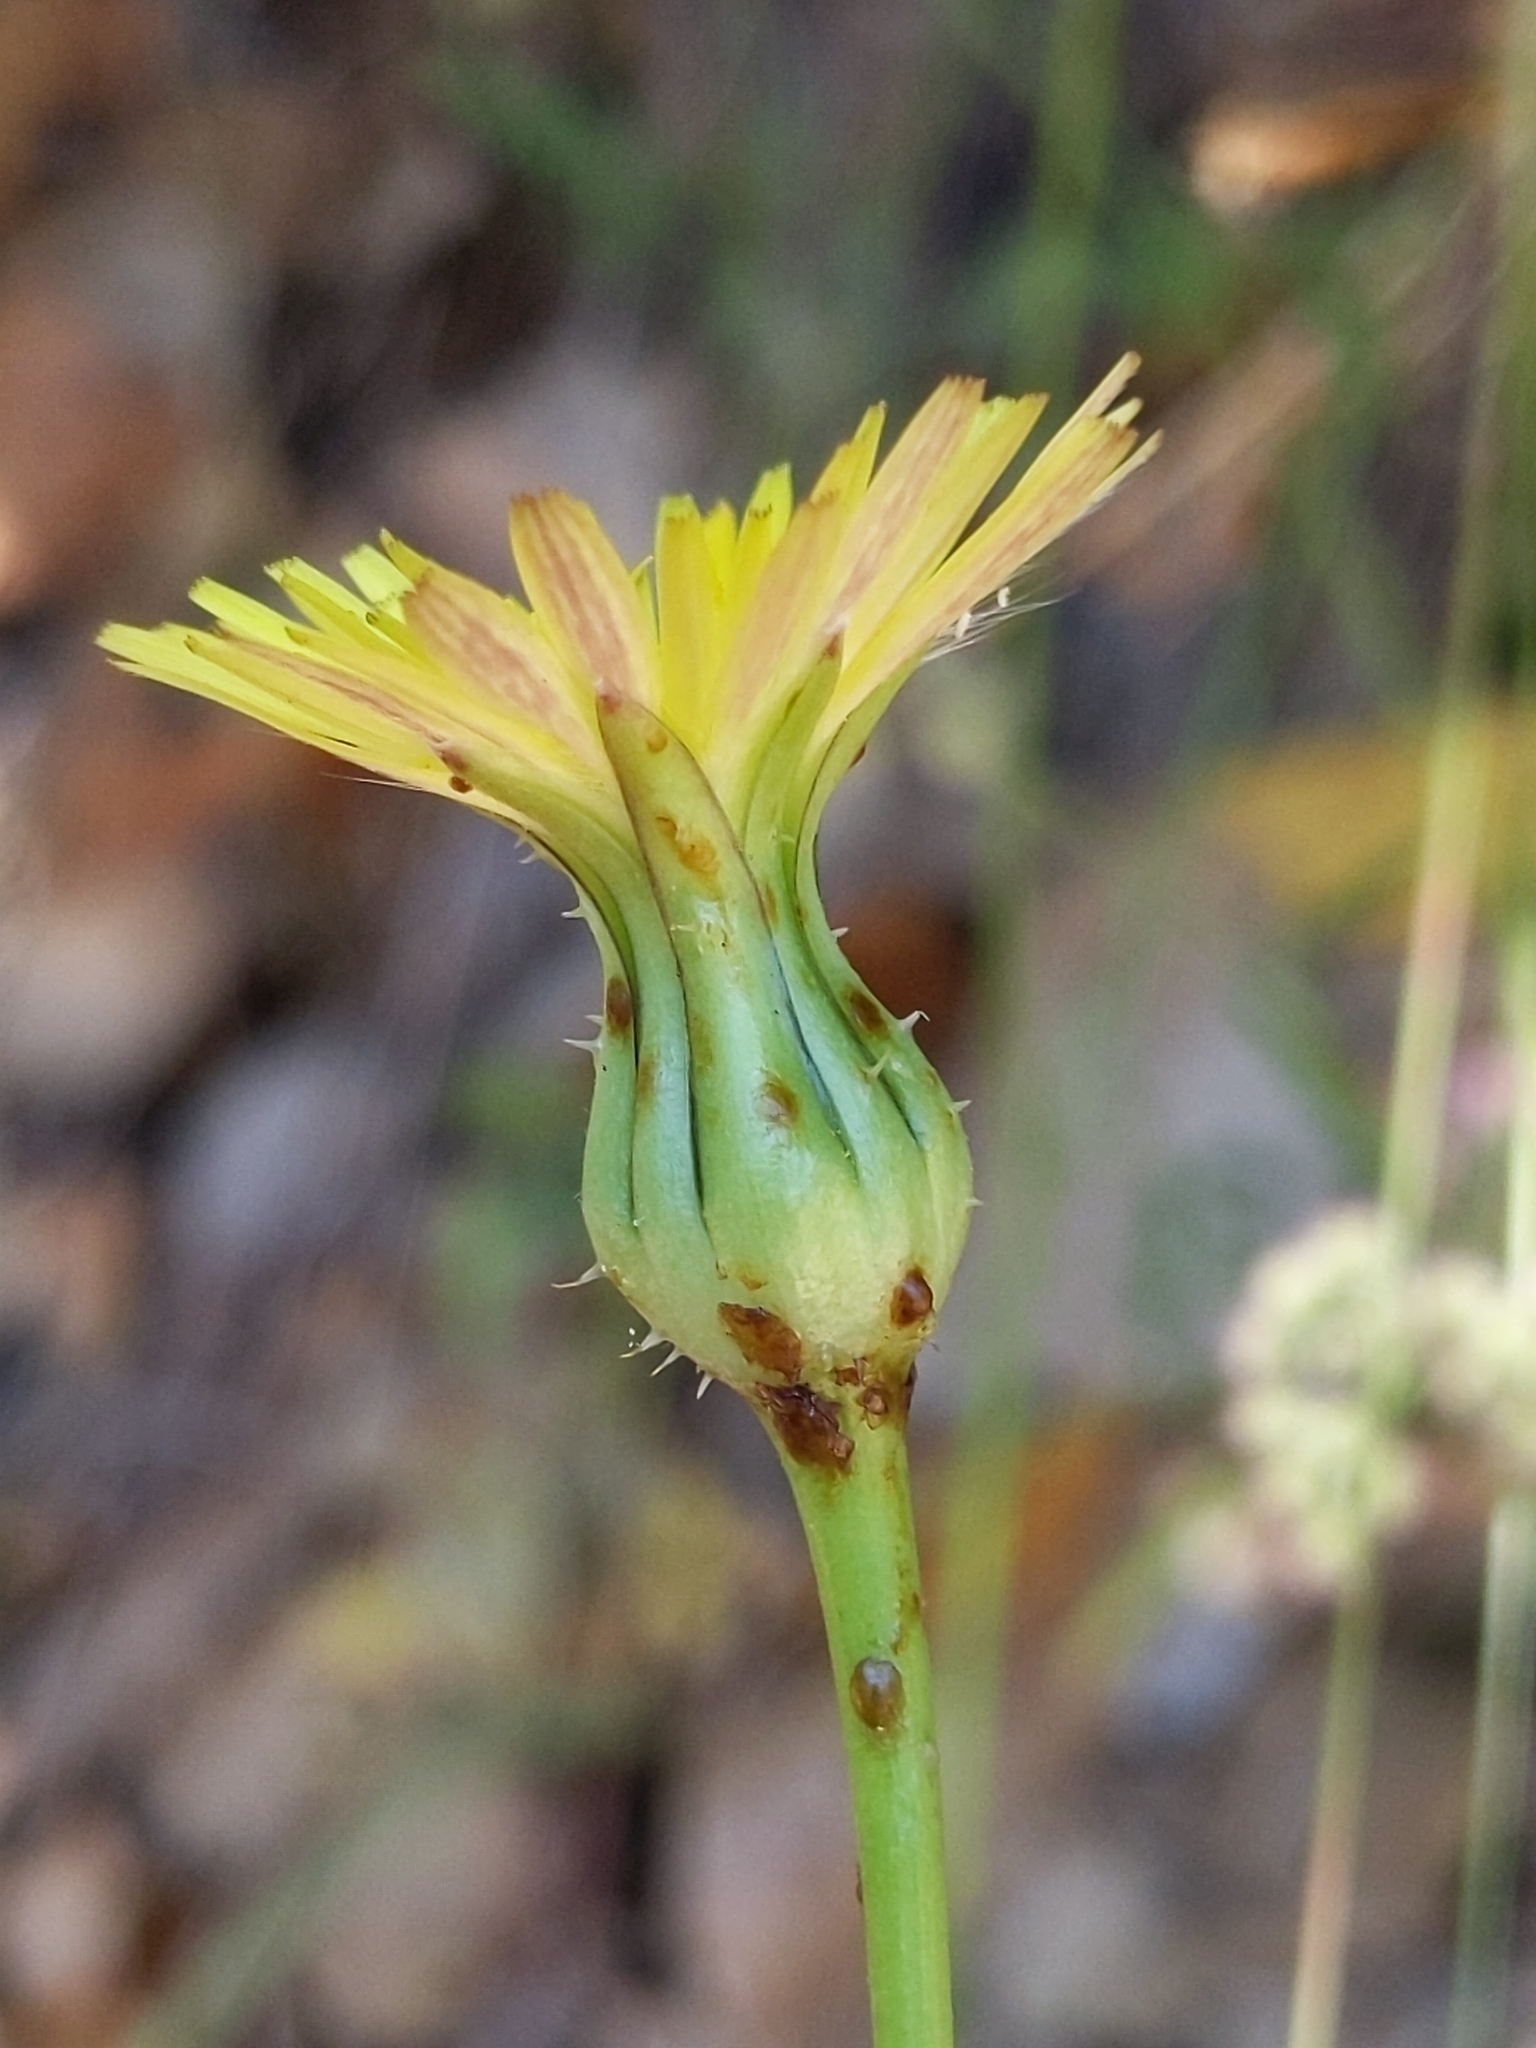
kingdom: Plantae
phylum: Tracheophyta
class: Magnoliopsida
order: Asterales
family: Asteraceae
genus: Urospermum
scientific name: Urospermum picroides
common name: False hawkbit
